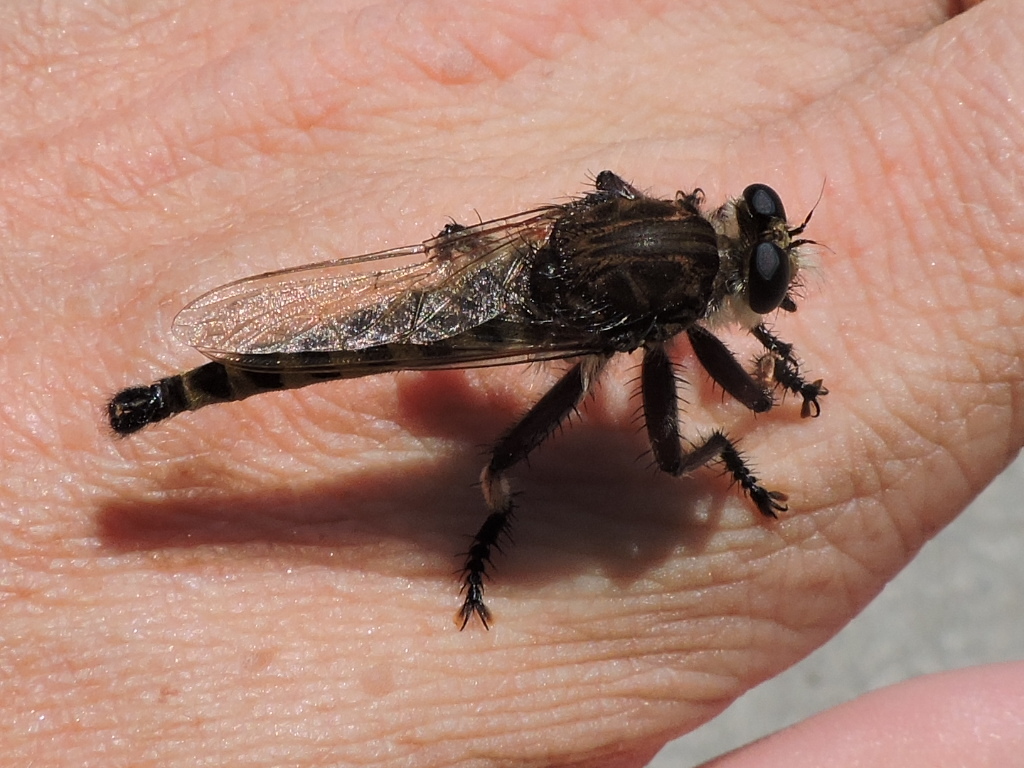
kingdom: Animalia
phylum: Arthropoda
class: Insecta
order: Diptera
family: Asilidae
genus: Promachus
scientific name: Promachus hinei
